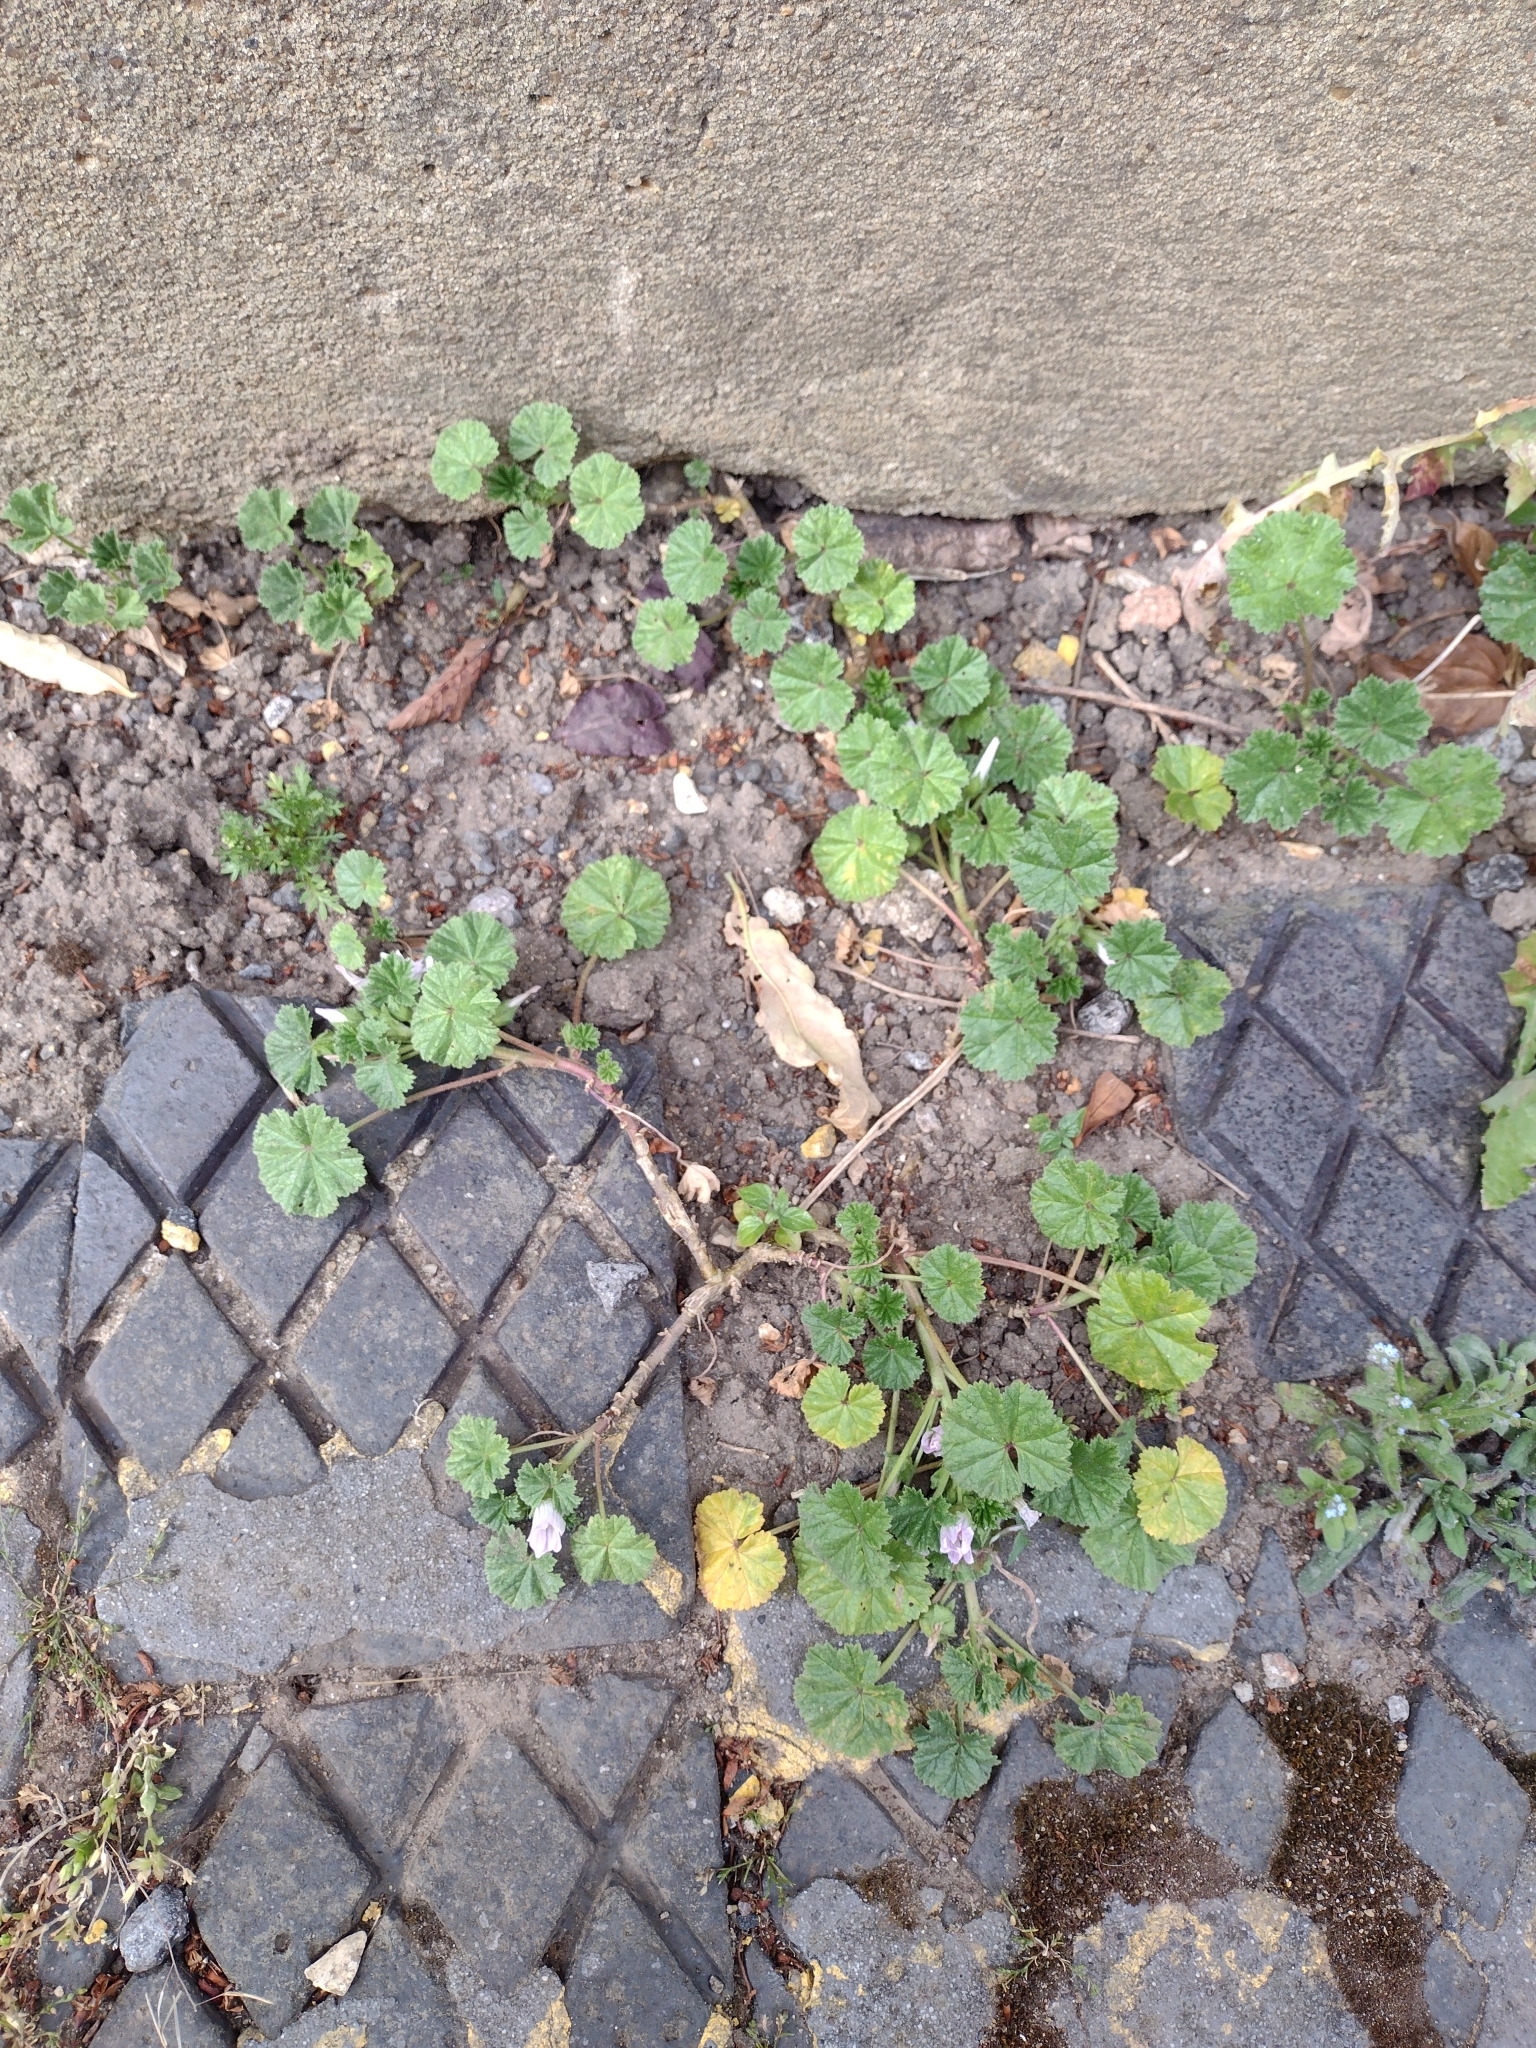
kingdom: Plantae
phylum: Tracheophyta
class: Magnoliopsida
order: Malvales
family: Malvaceae
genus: Malva
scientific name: Malva neglecta
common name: Common mallow
